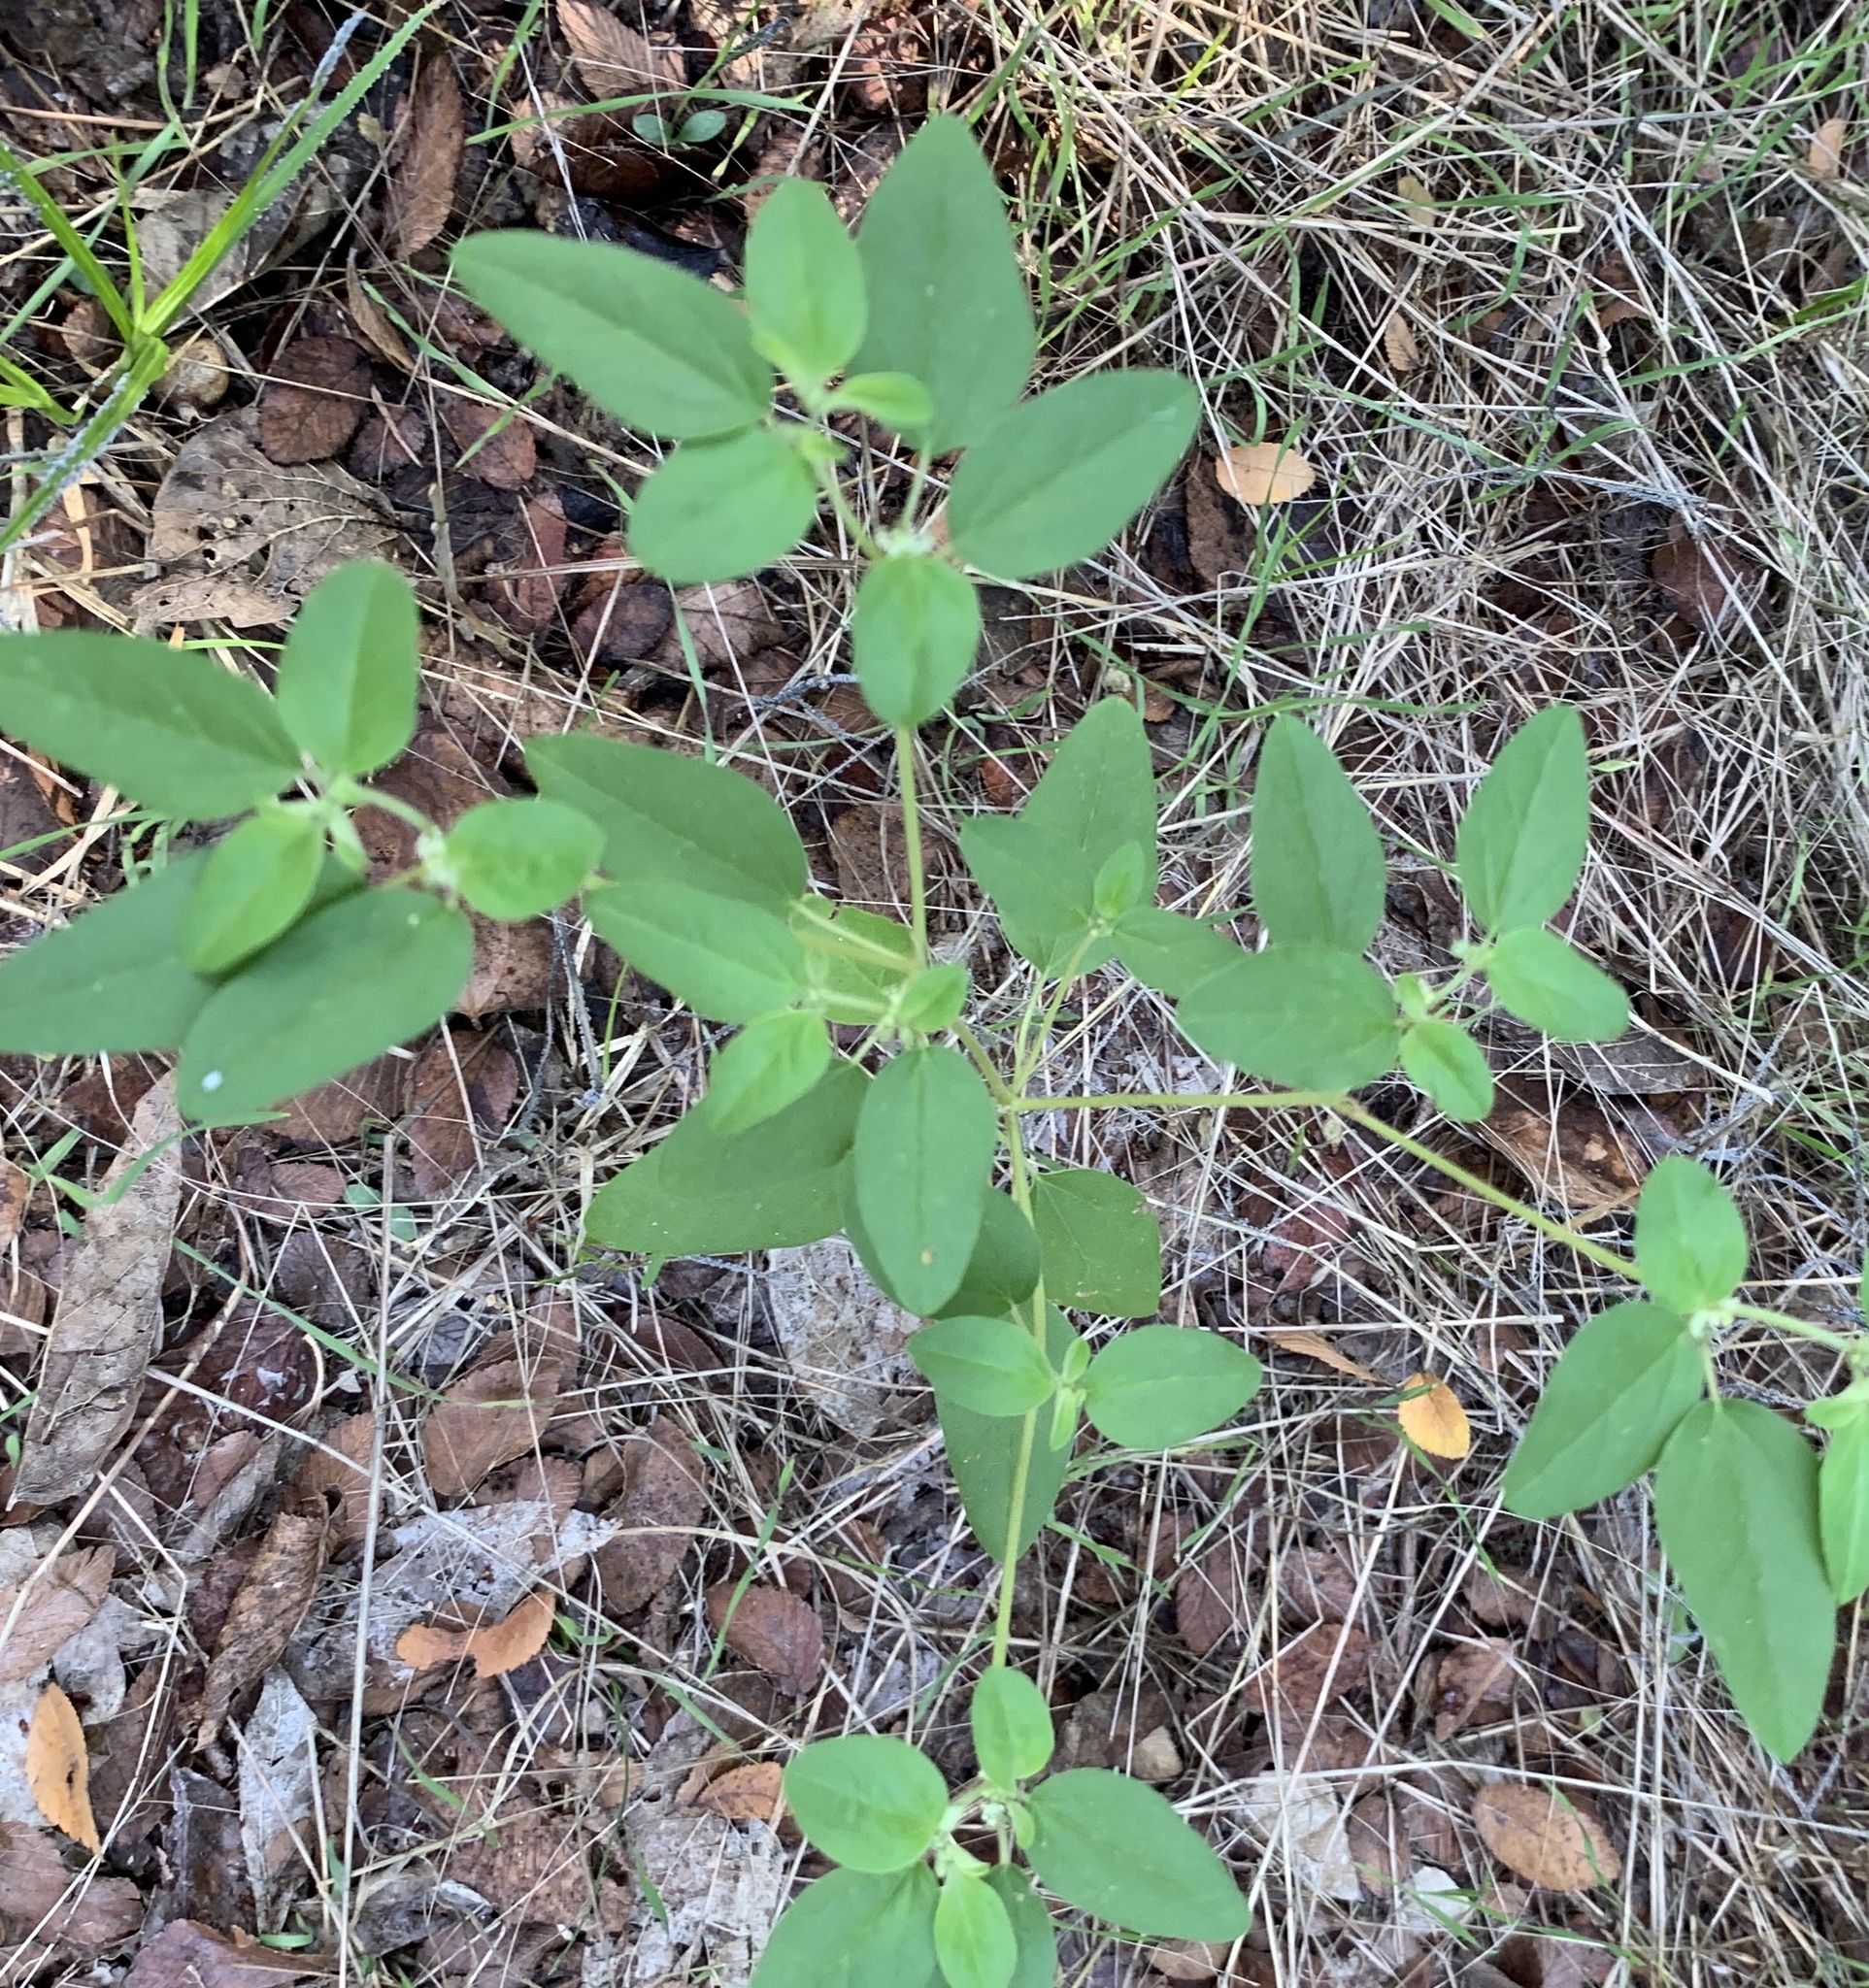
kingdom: Plantae
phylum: Tracheophyta
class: Magnoliopsida
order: Malpighiales
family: Euphorbiaceae
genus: Croton
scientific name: Croton monanthogynus
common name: One-seed croton
